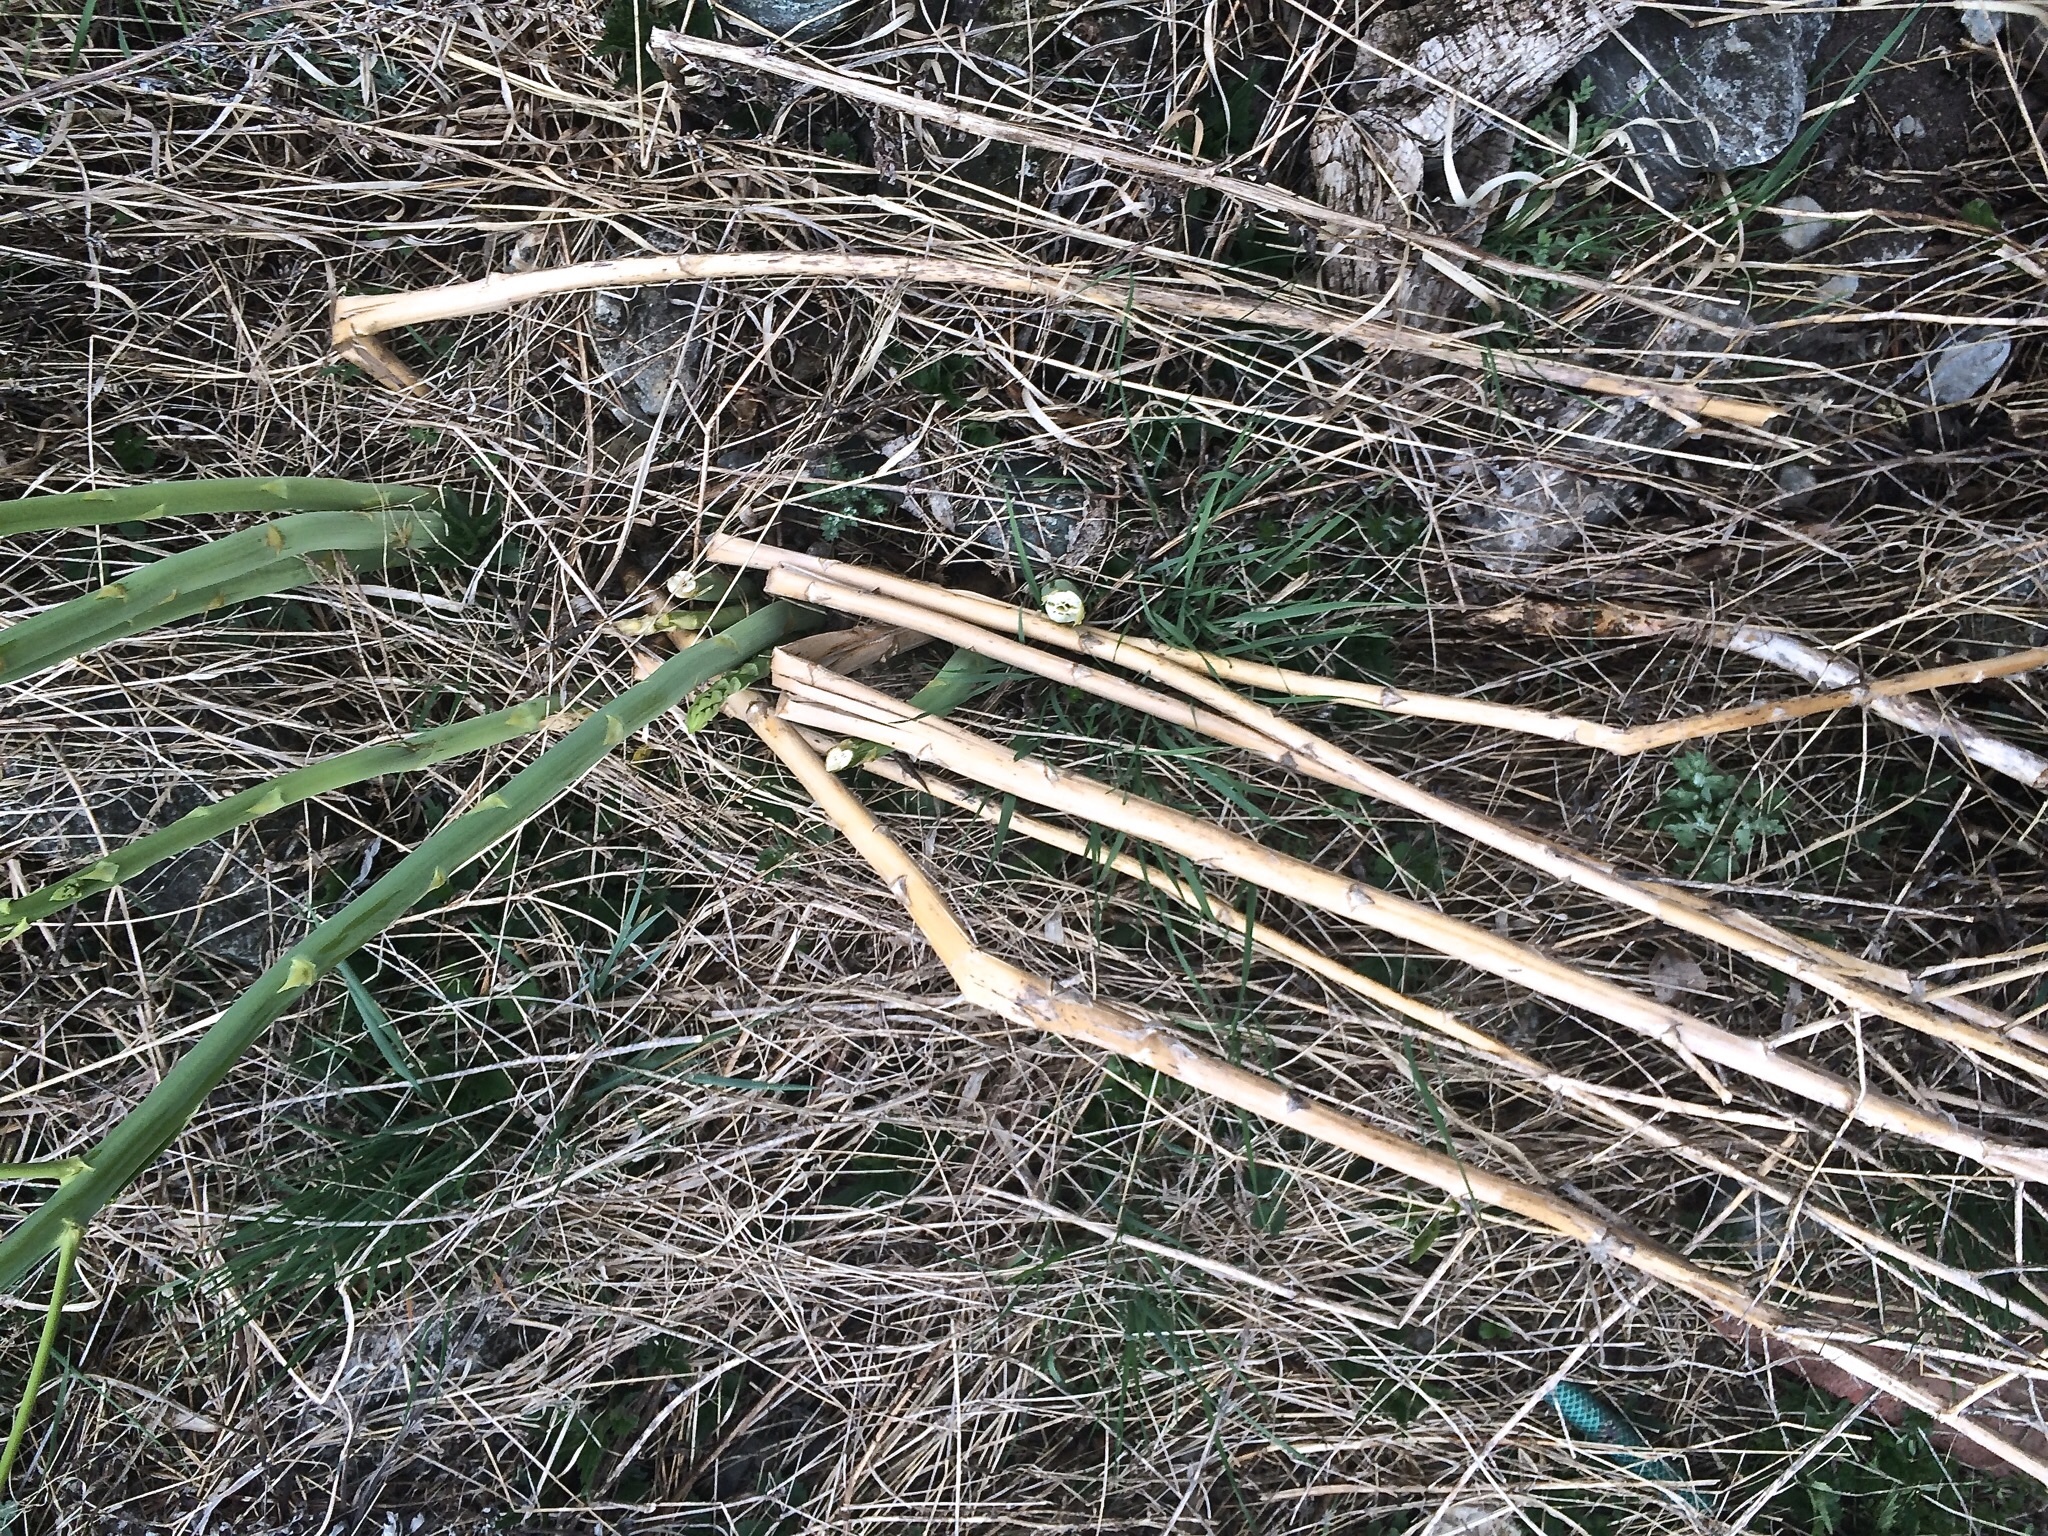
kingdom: Plantae
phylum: Tracheophyta
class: Liliopsida
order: Asparagales
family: Asparagaceae
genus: Asparagus
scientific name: Asparagus officinalis
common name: Garden asparagus
